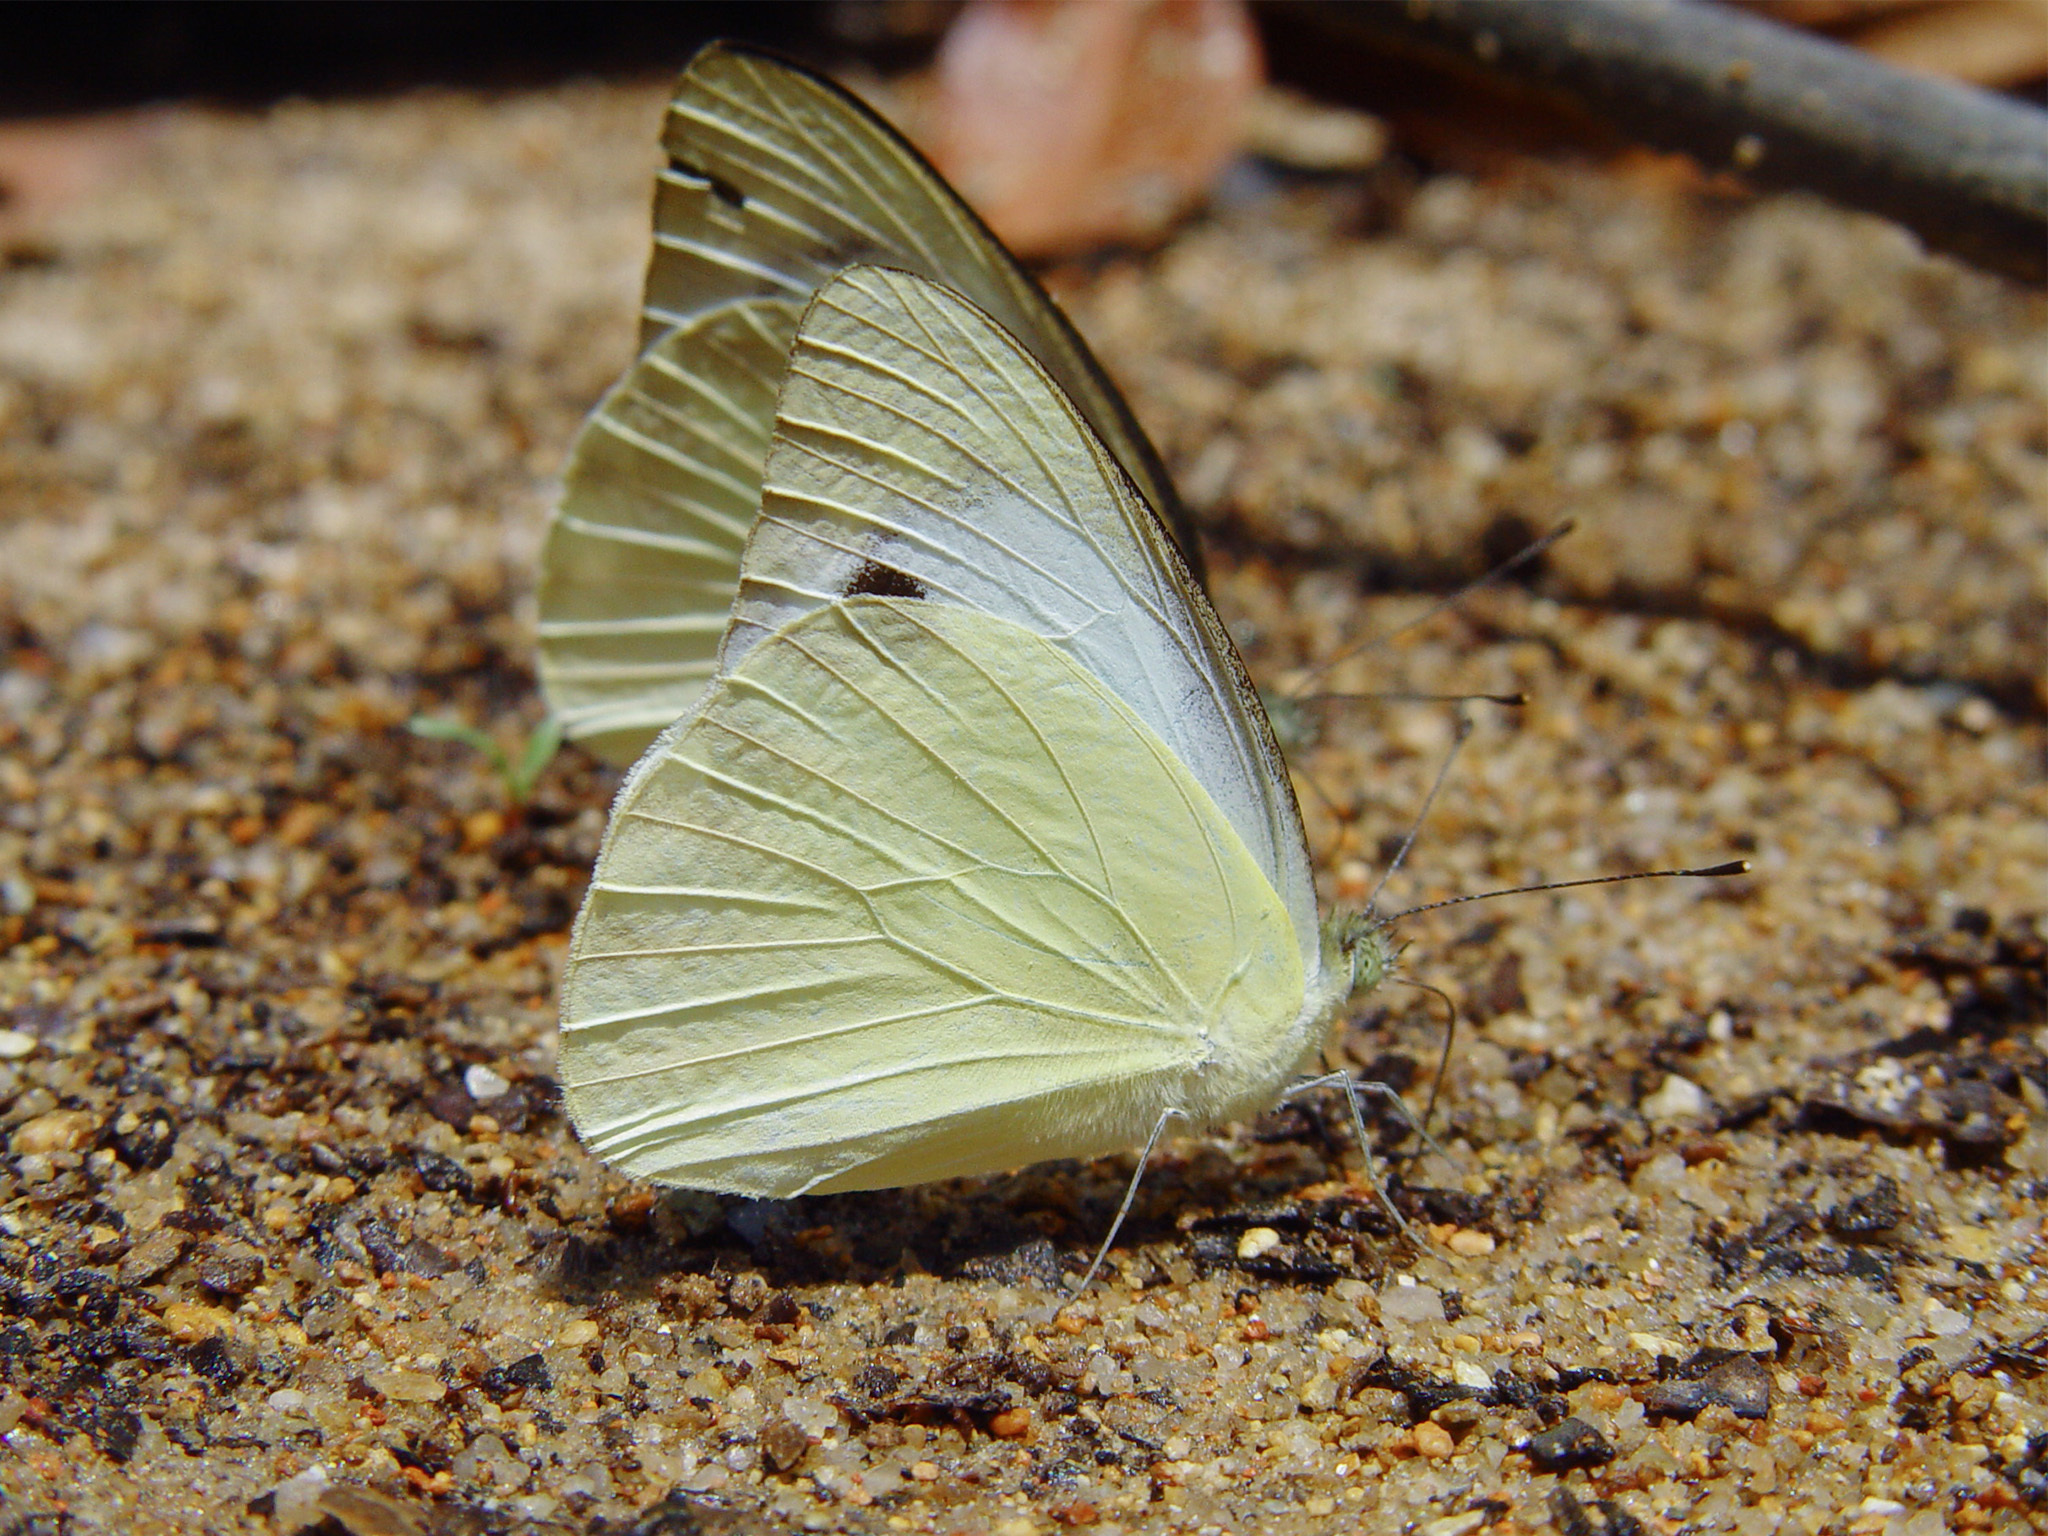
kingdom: Animalia
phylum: Arthropoda
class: Insecta
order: Lepidoptera
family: Pieridae
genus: Appias
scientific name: Appias paulina
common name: Ceylon lesser albatross
